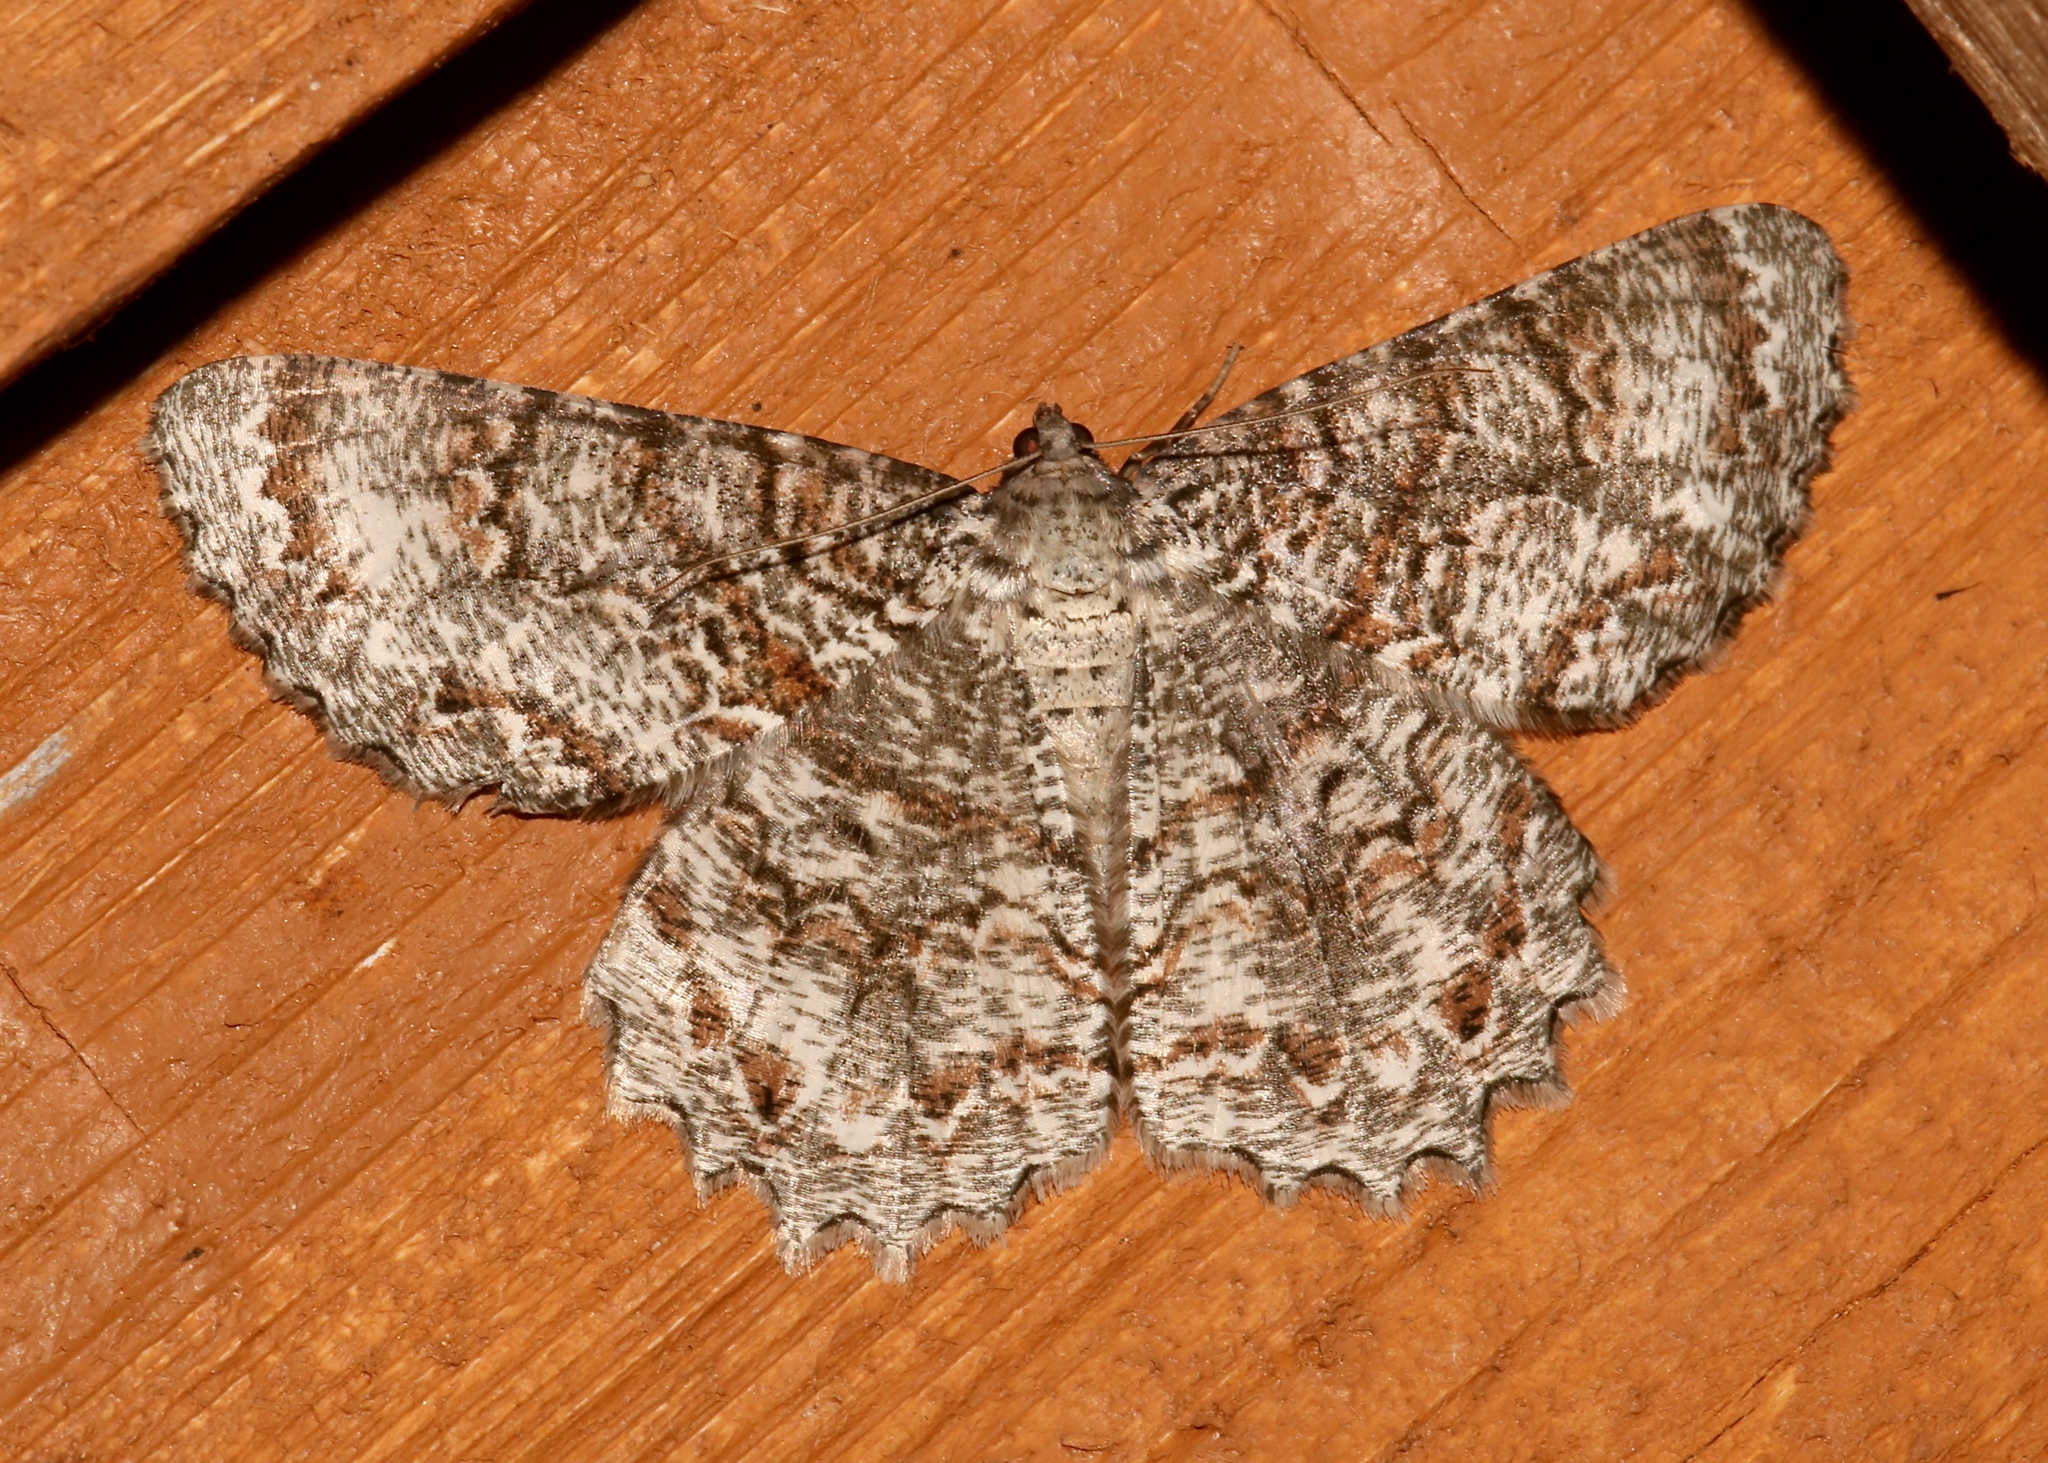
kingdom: Animalia
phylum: Arthropoda
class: Insecta
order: Lepidoptera
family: Geometridae
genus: Epimecis
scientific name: Epimecis hortaria
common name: Tulip-tree beauty
